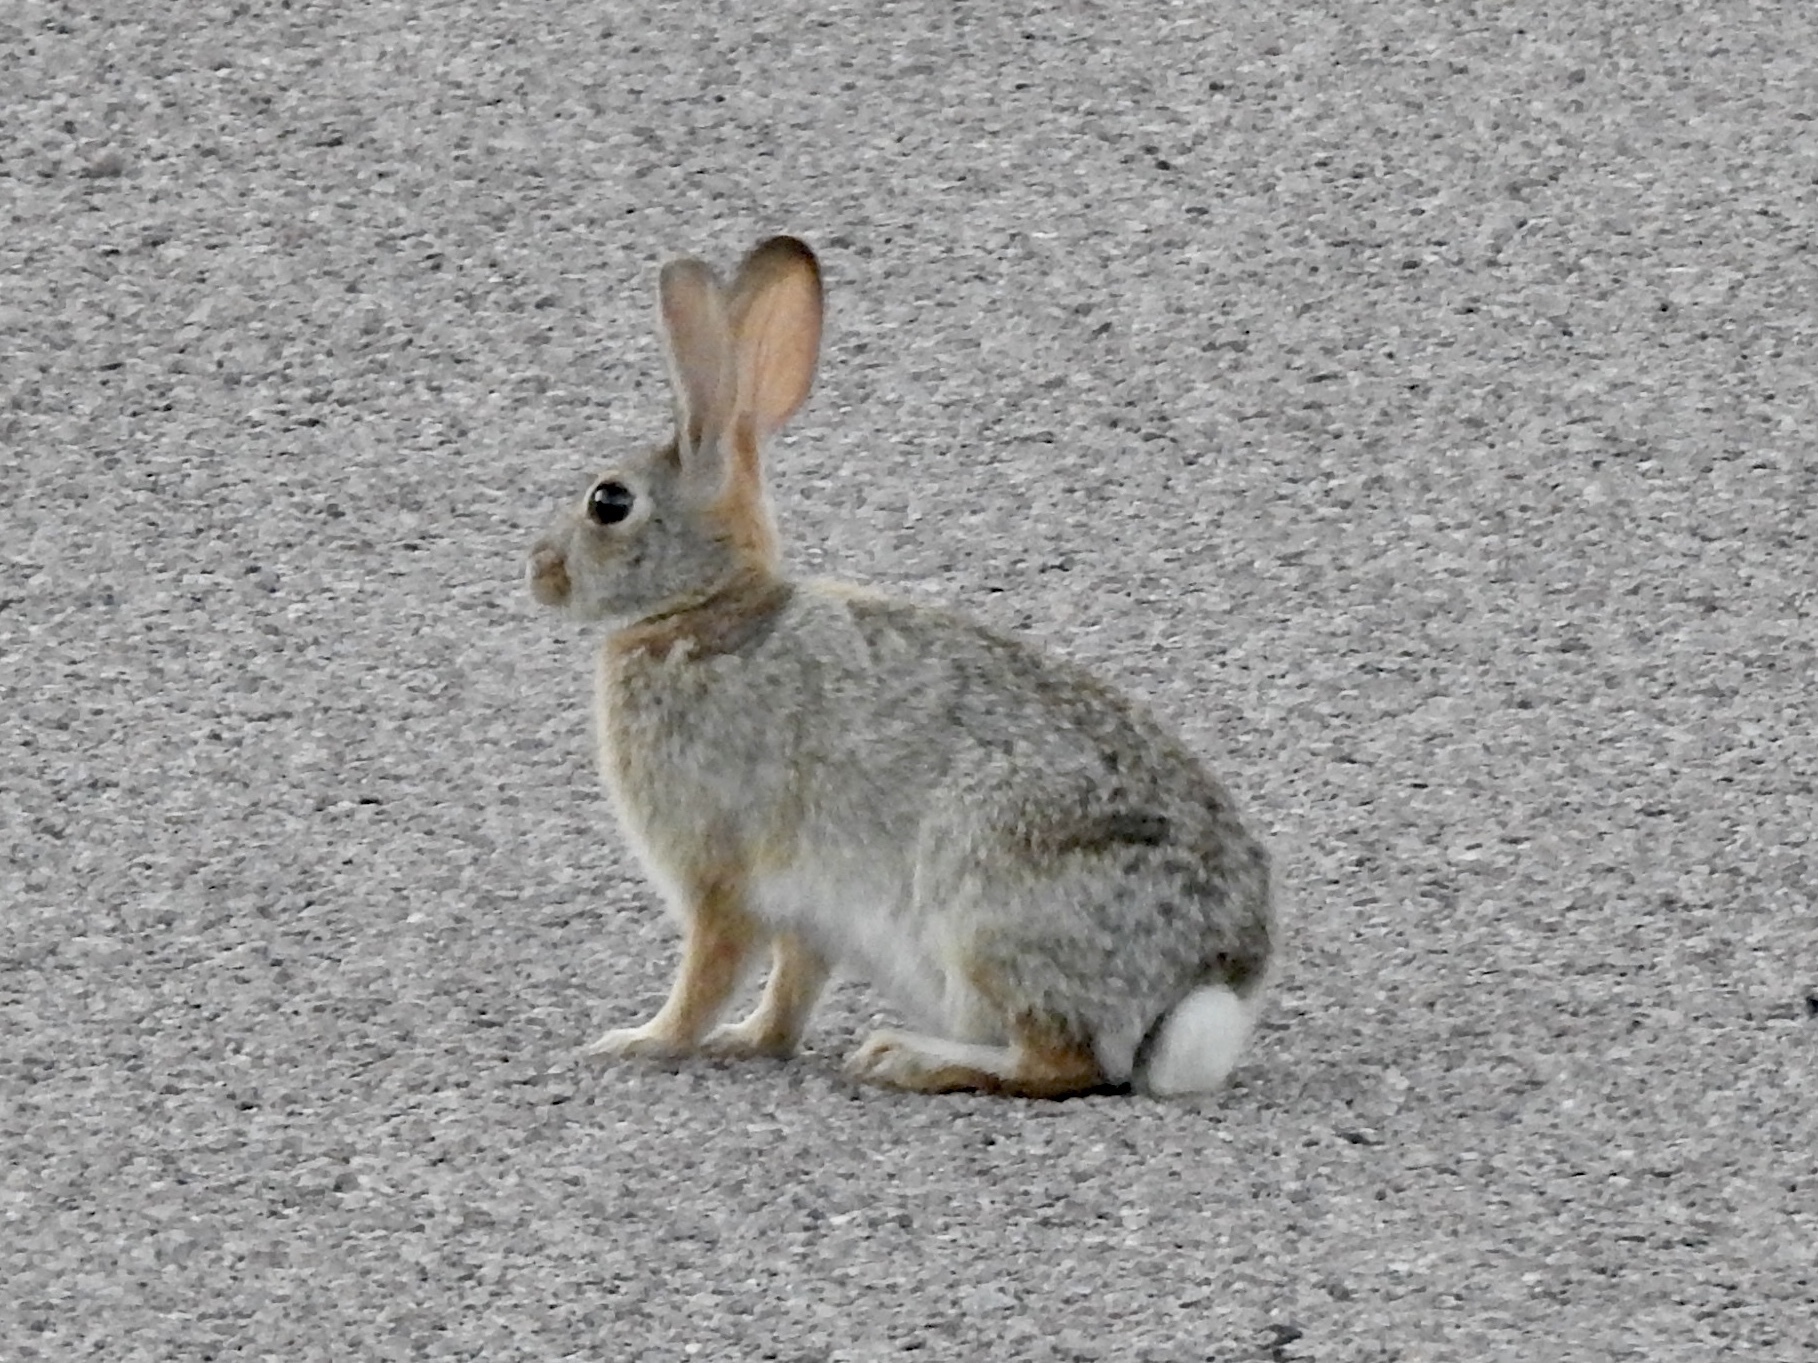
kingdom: Animalia
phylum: Chordata
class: Mammalia
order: Lagomorpha
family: Leporidae
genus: Sylvilagus
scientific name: Sylvilagus audubonii
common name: Desert cottontail
